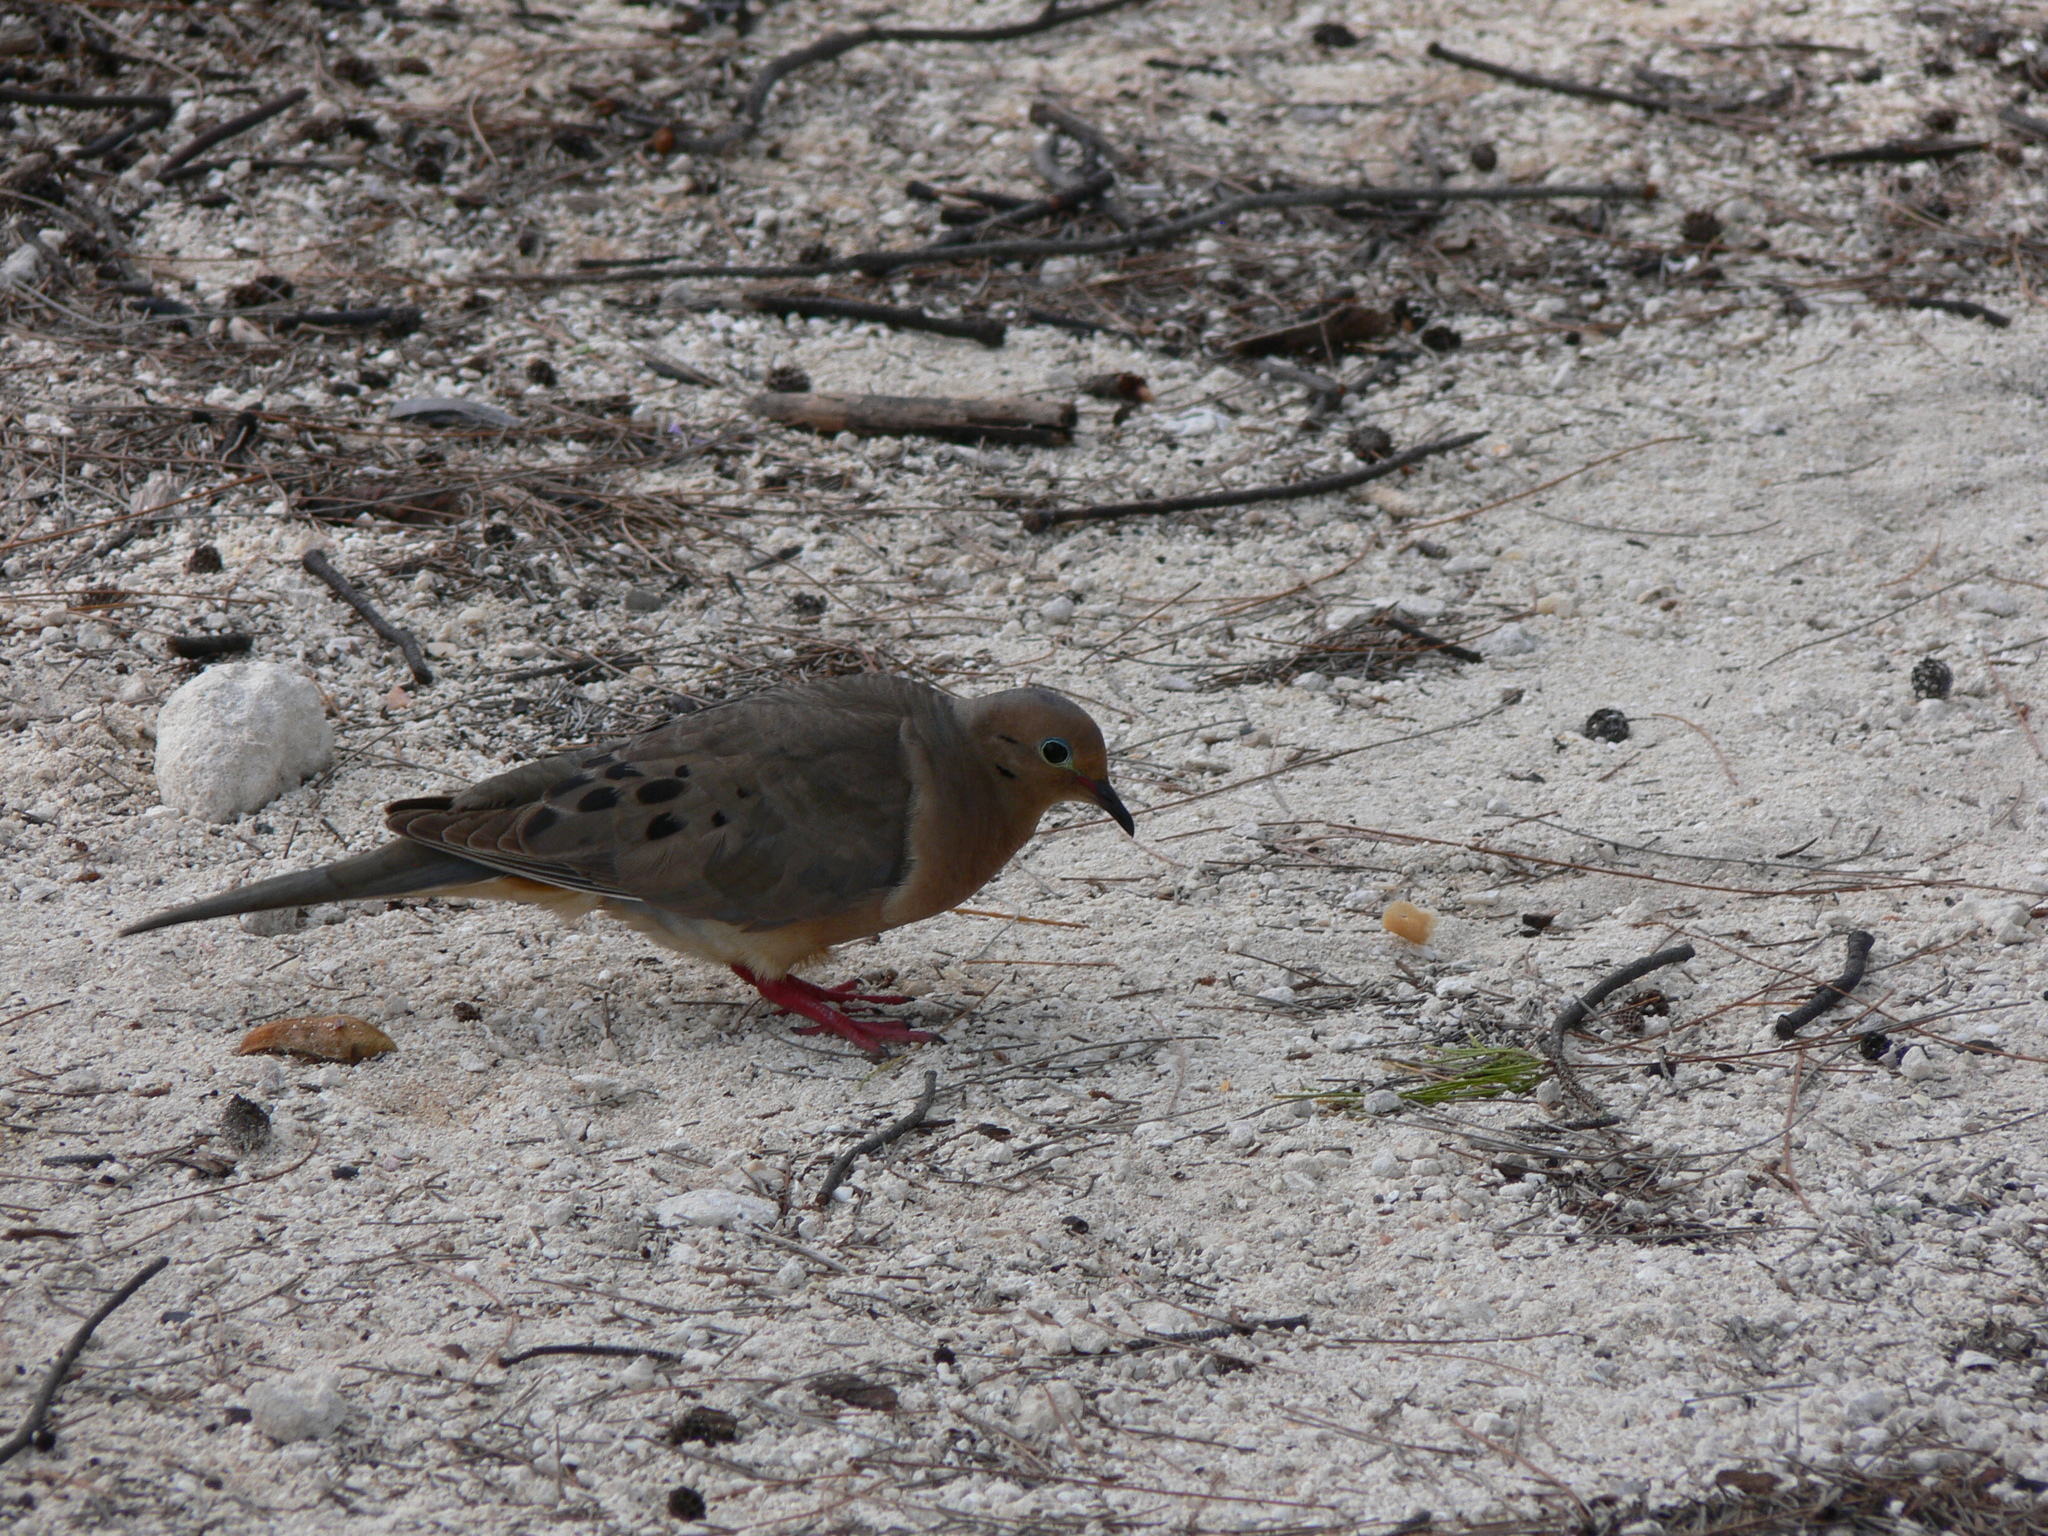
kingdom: Animalia
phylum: Chordata
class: Aves
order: Columbiformes
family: Columbidae
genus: Zenaida
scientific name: Zenaida macroura
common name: Mourning dove
